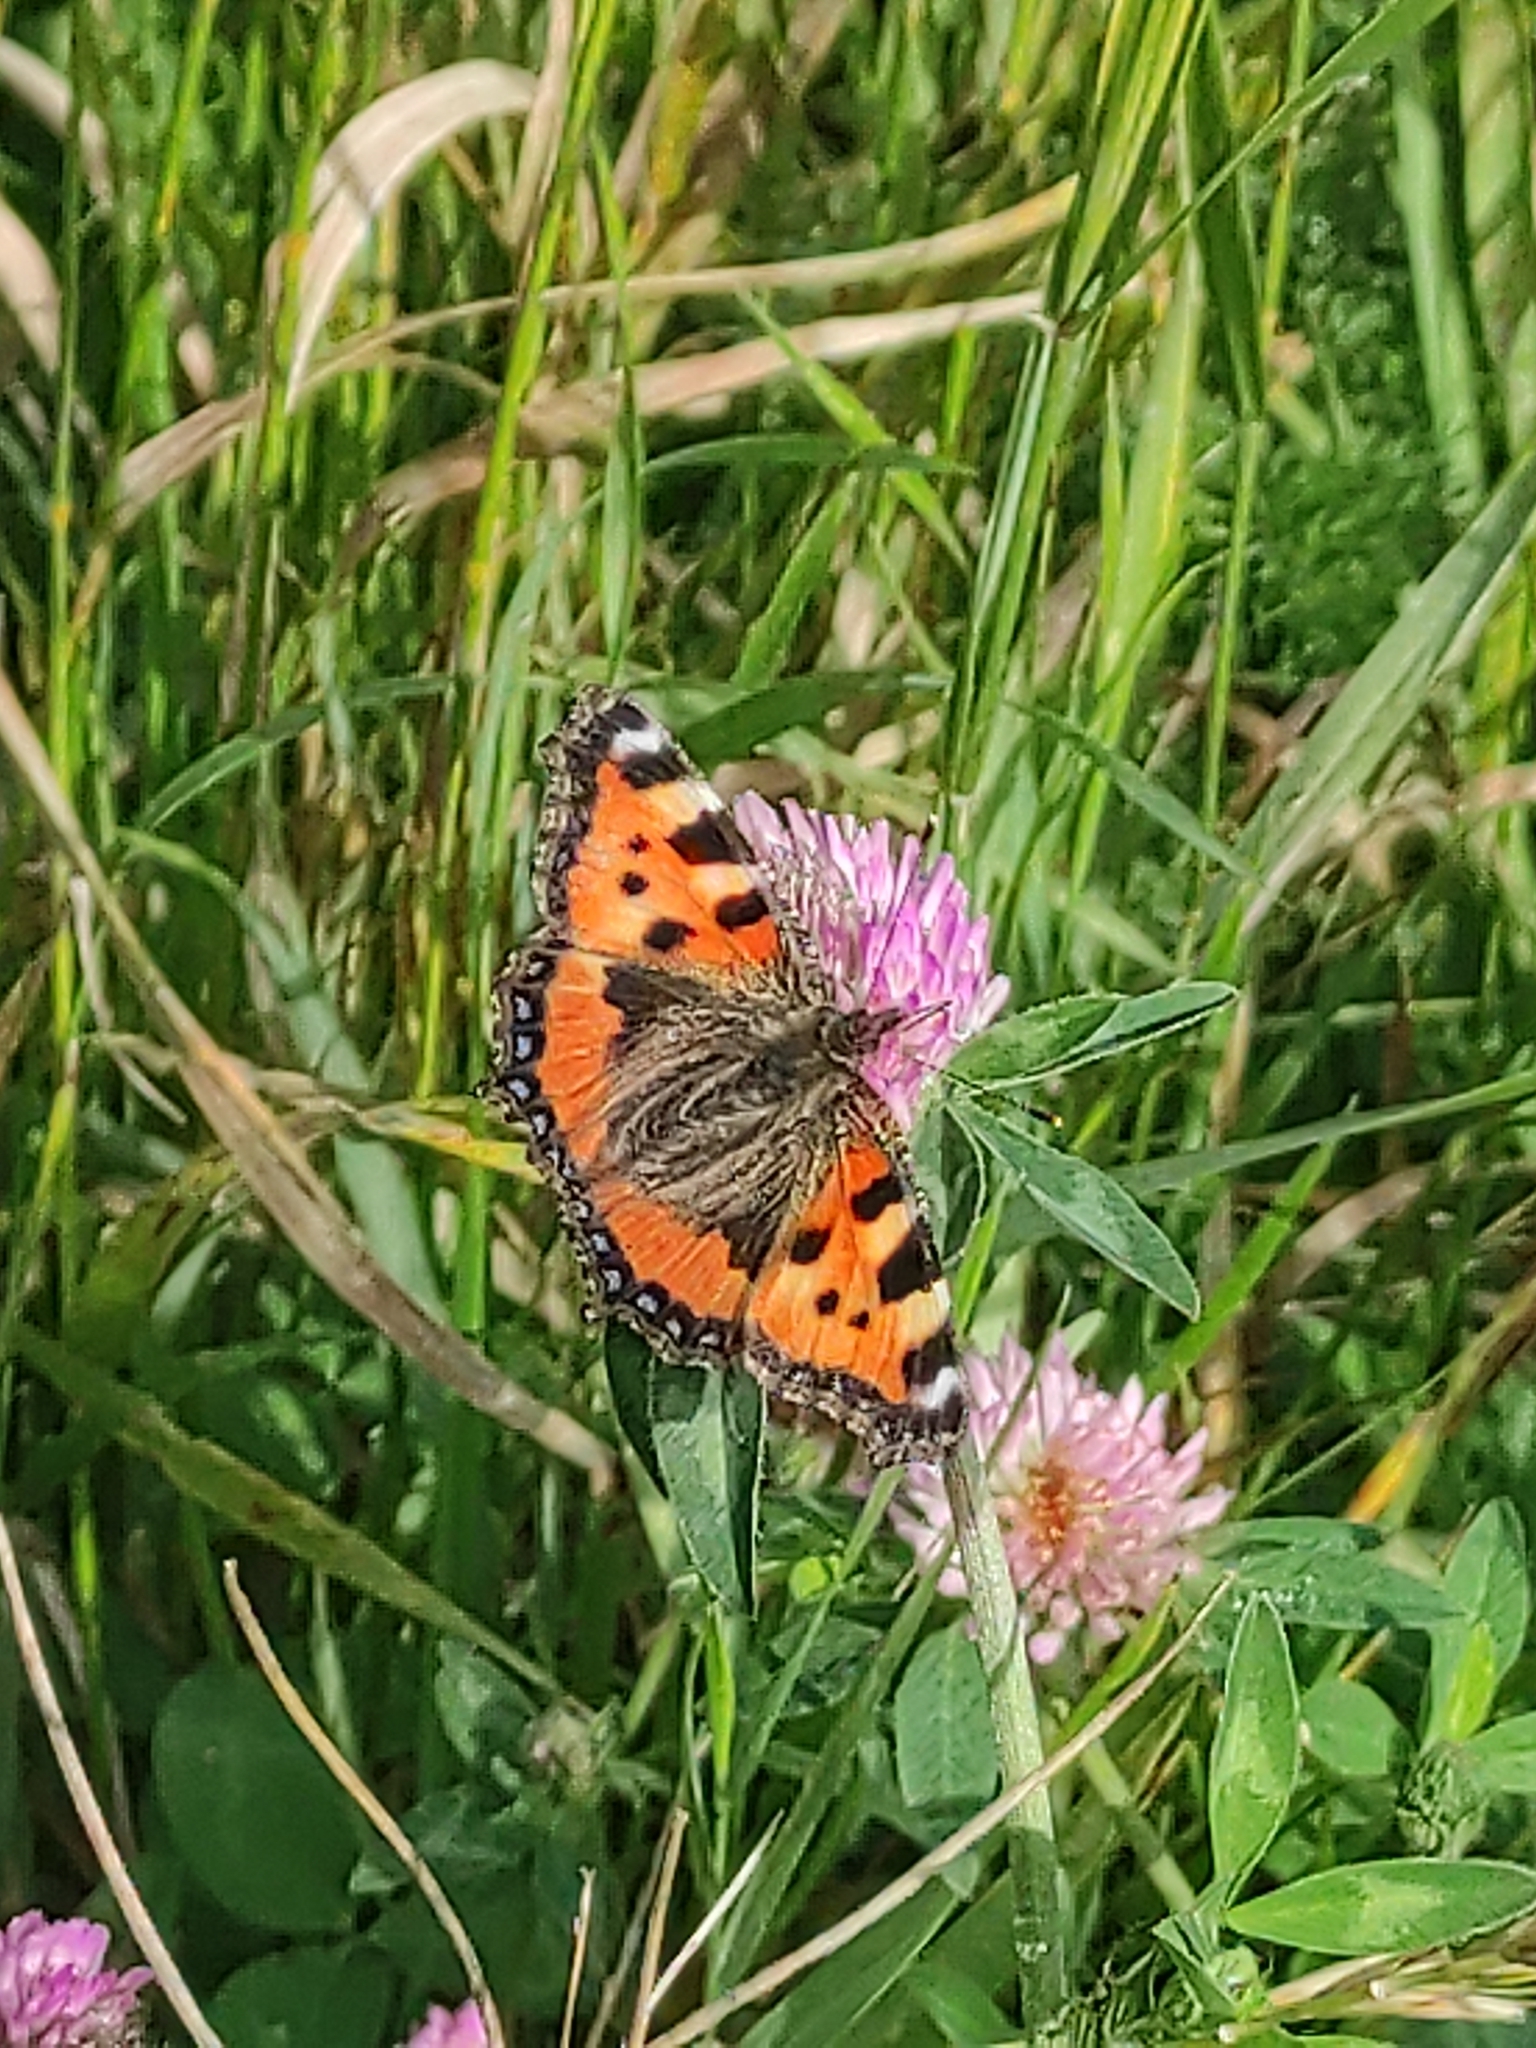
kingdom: Animalia
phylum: Arthropoda
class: Insecta
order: Lepidoptera
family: Nymphalidae
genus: Aglais
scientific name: Aglais urticae
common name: Small tortoiseshell
